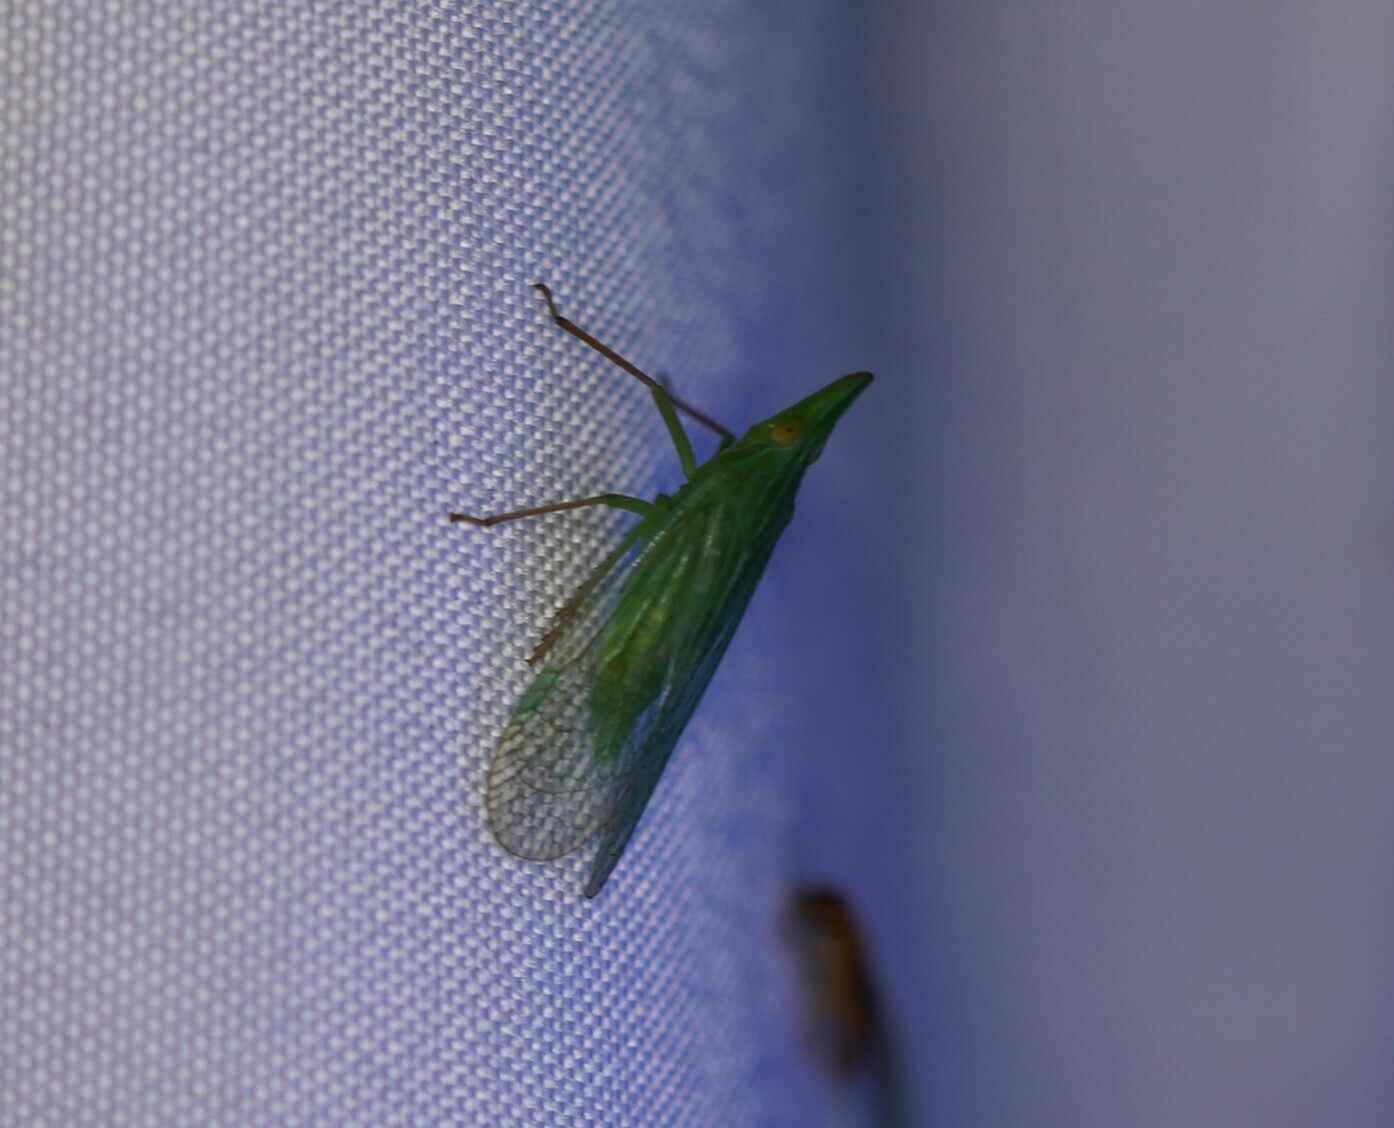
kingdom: Animalia
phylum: Arthropoda
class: Insecta
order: Hemiptera
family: Dictyopharidae
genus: Rhynchomitra
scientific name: Rhynchomitra microrhina
